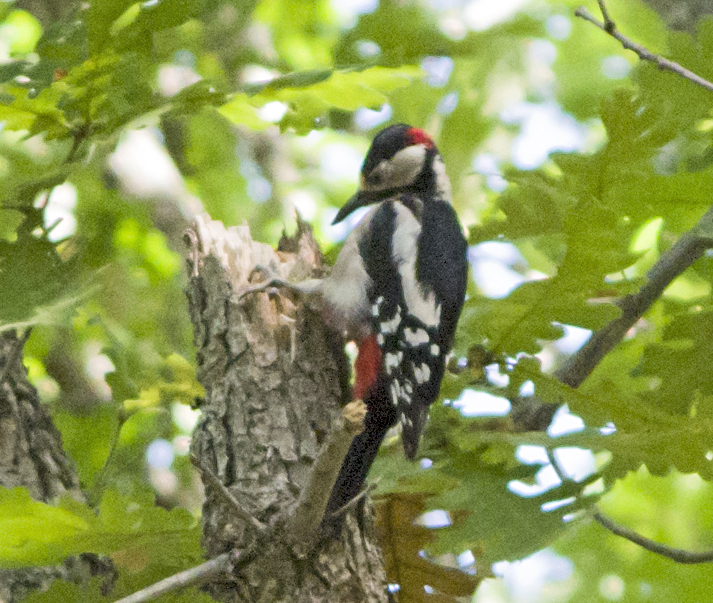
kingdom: Animalia
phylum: Chordata
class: Aves
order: Piciformes
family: Picidae
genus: Dendrocopos
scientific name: Dendrocopos major
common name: Great spotted woodpecker
